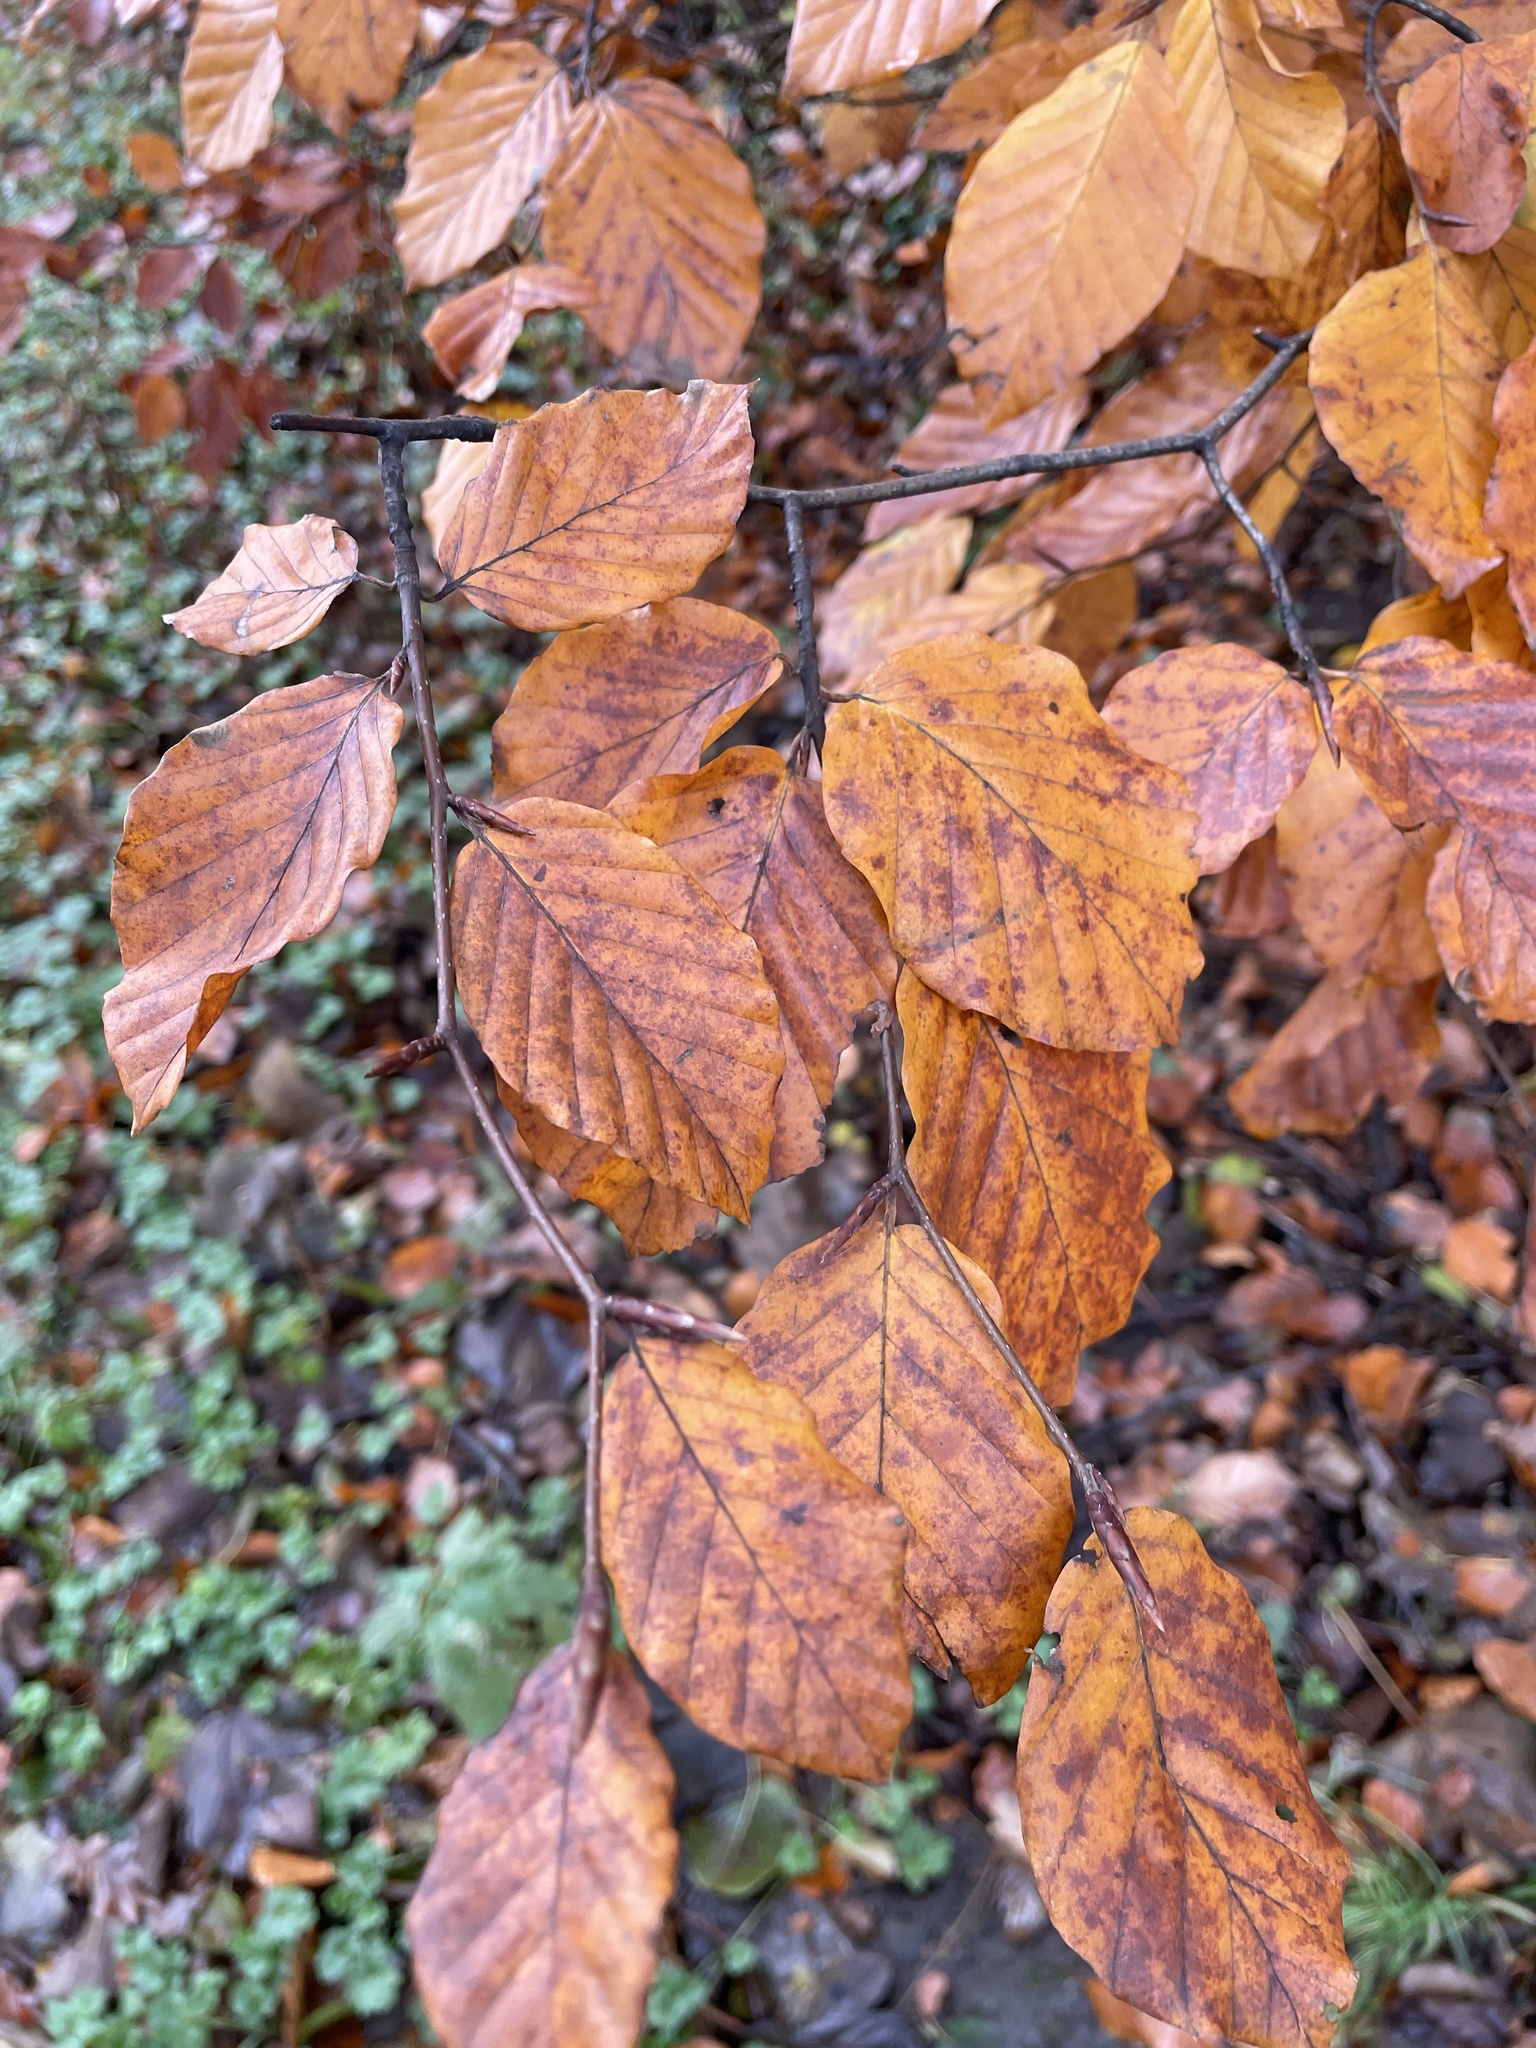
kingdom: Plantae
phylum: Tracheophyta
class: Magnoliopsida
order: Fagales
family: Fagaceae
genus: Fagus
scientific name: Fagus sylvatica
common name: Beech
